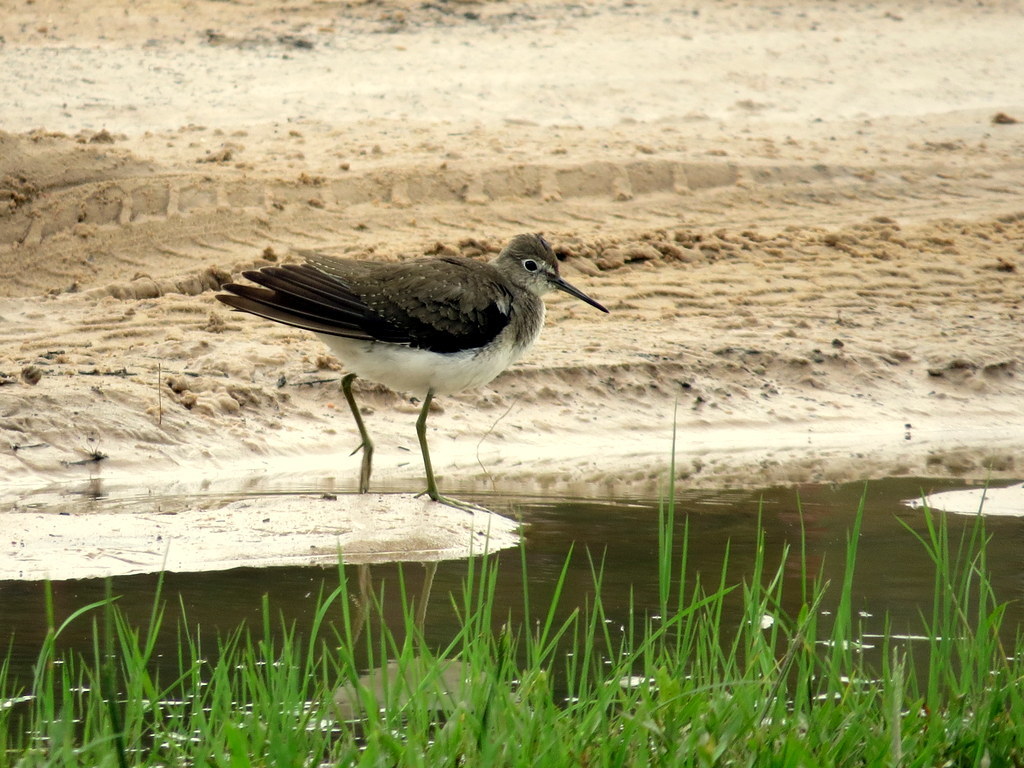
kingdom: Animalia
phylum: Chordata
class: Aves
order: Charadriiformes
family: Scolopacidae
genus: Tringa
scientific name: Tringa solitaria
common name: Solitary sandpiper
